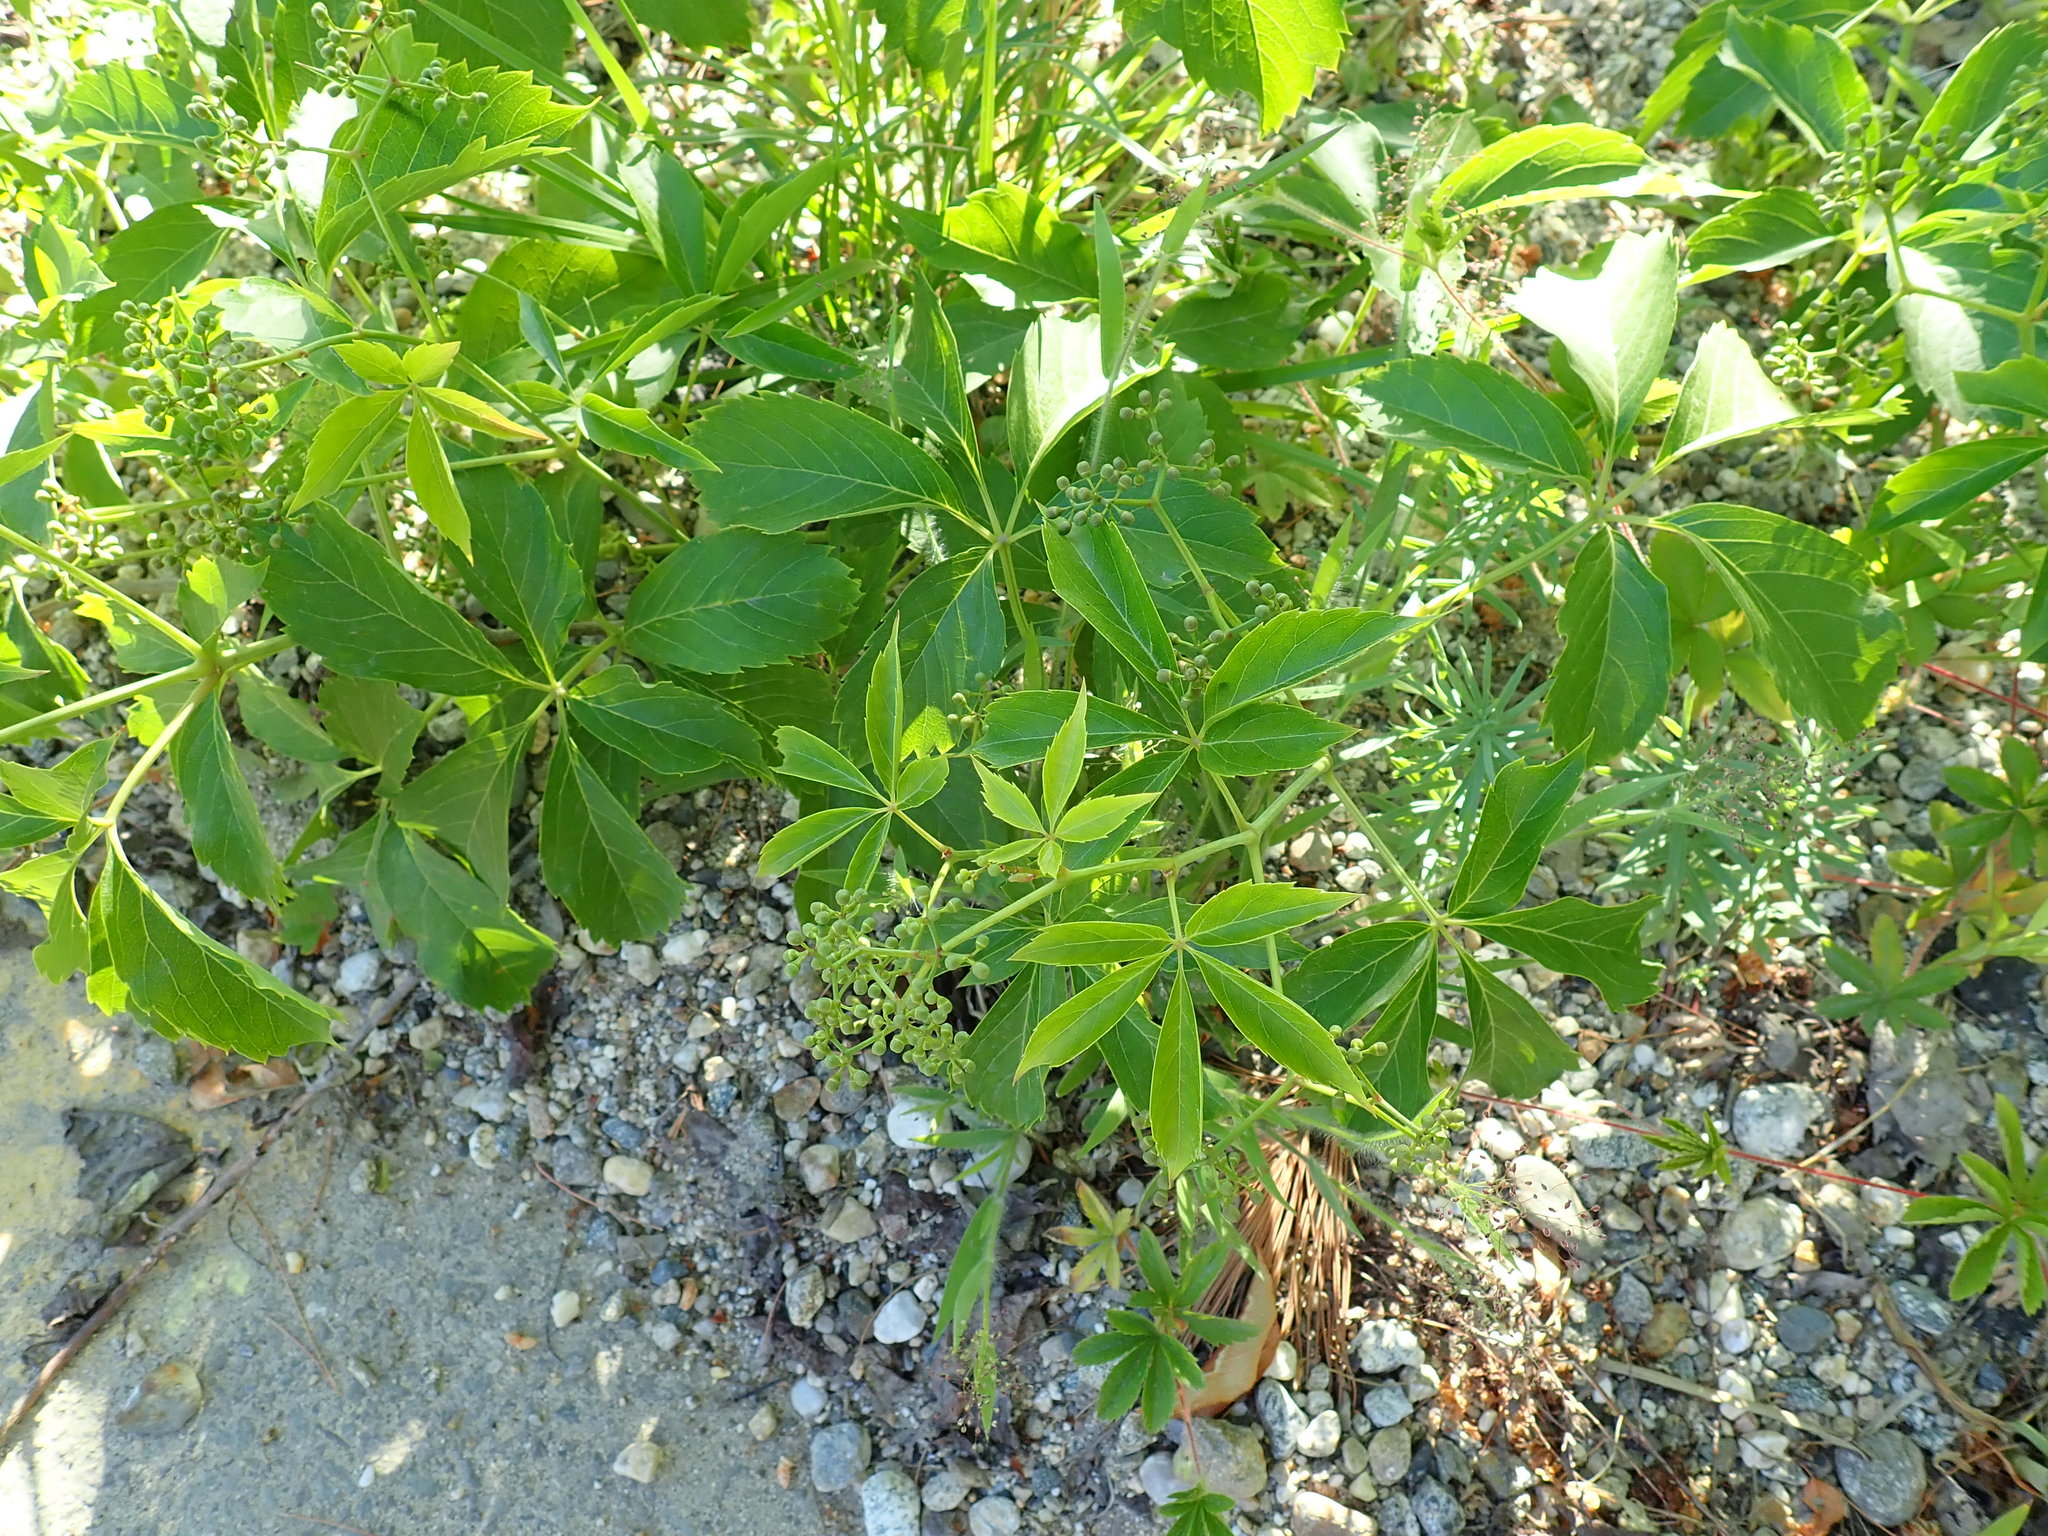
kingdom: Plantae
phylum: Tracheophyta
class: Magnoliopsida
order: Vitales
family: Vitaceae
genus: Parthenocissus
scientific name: Parthenocissus
